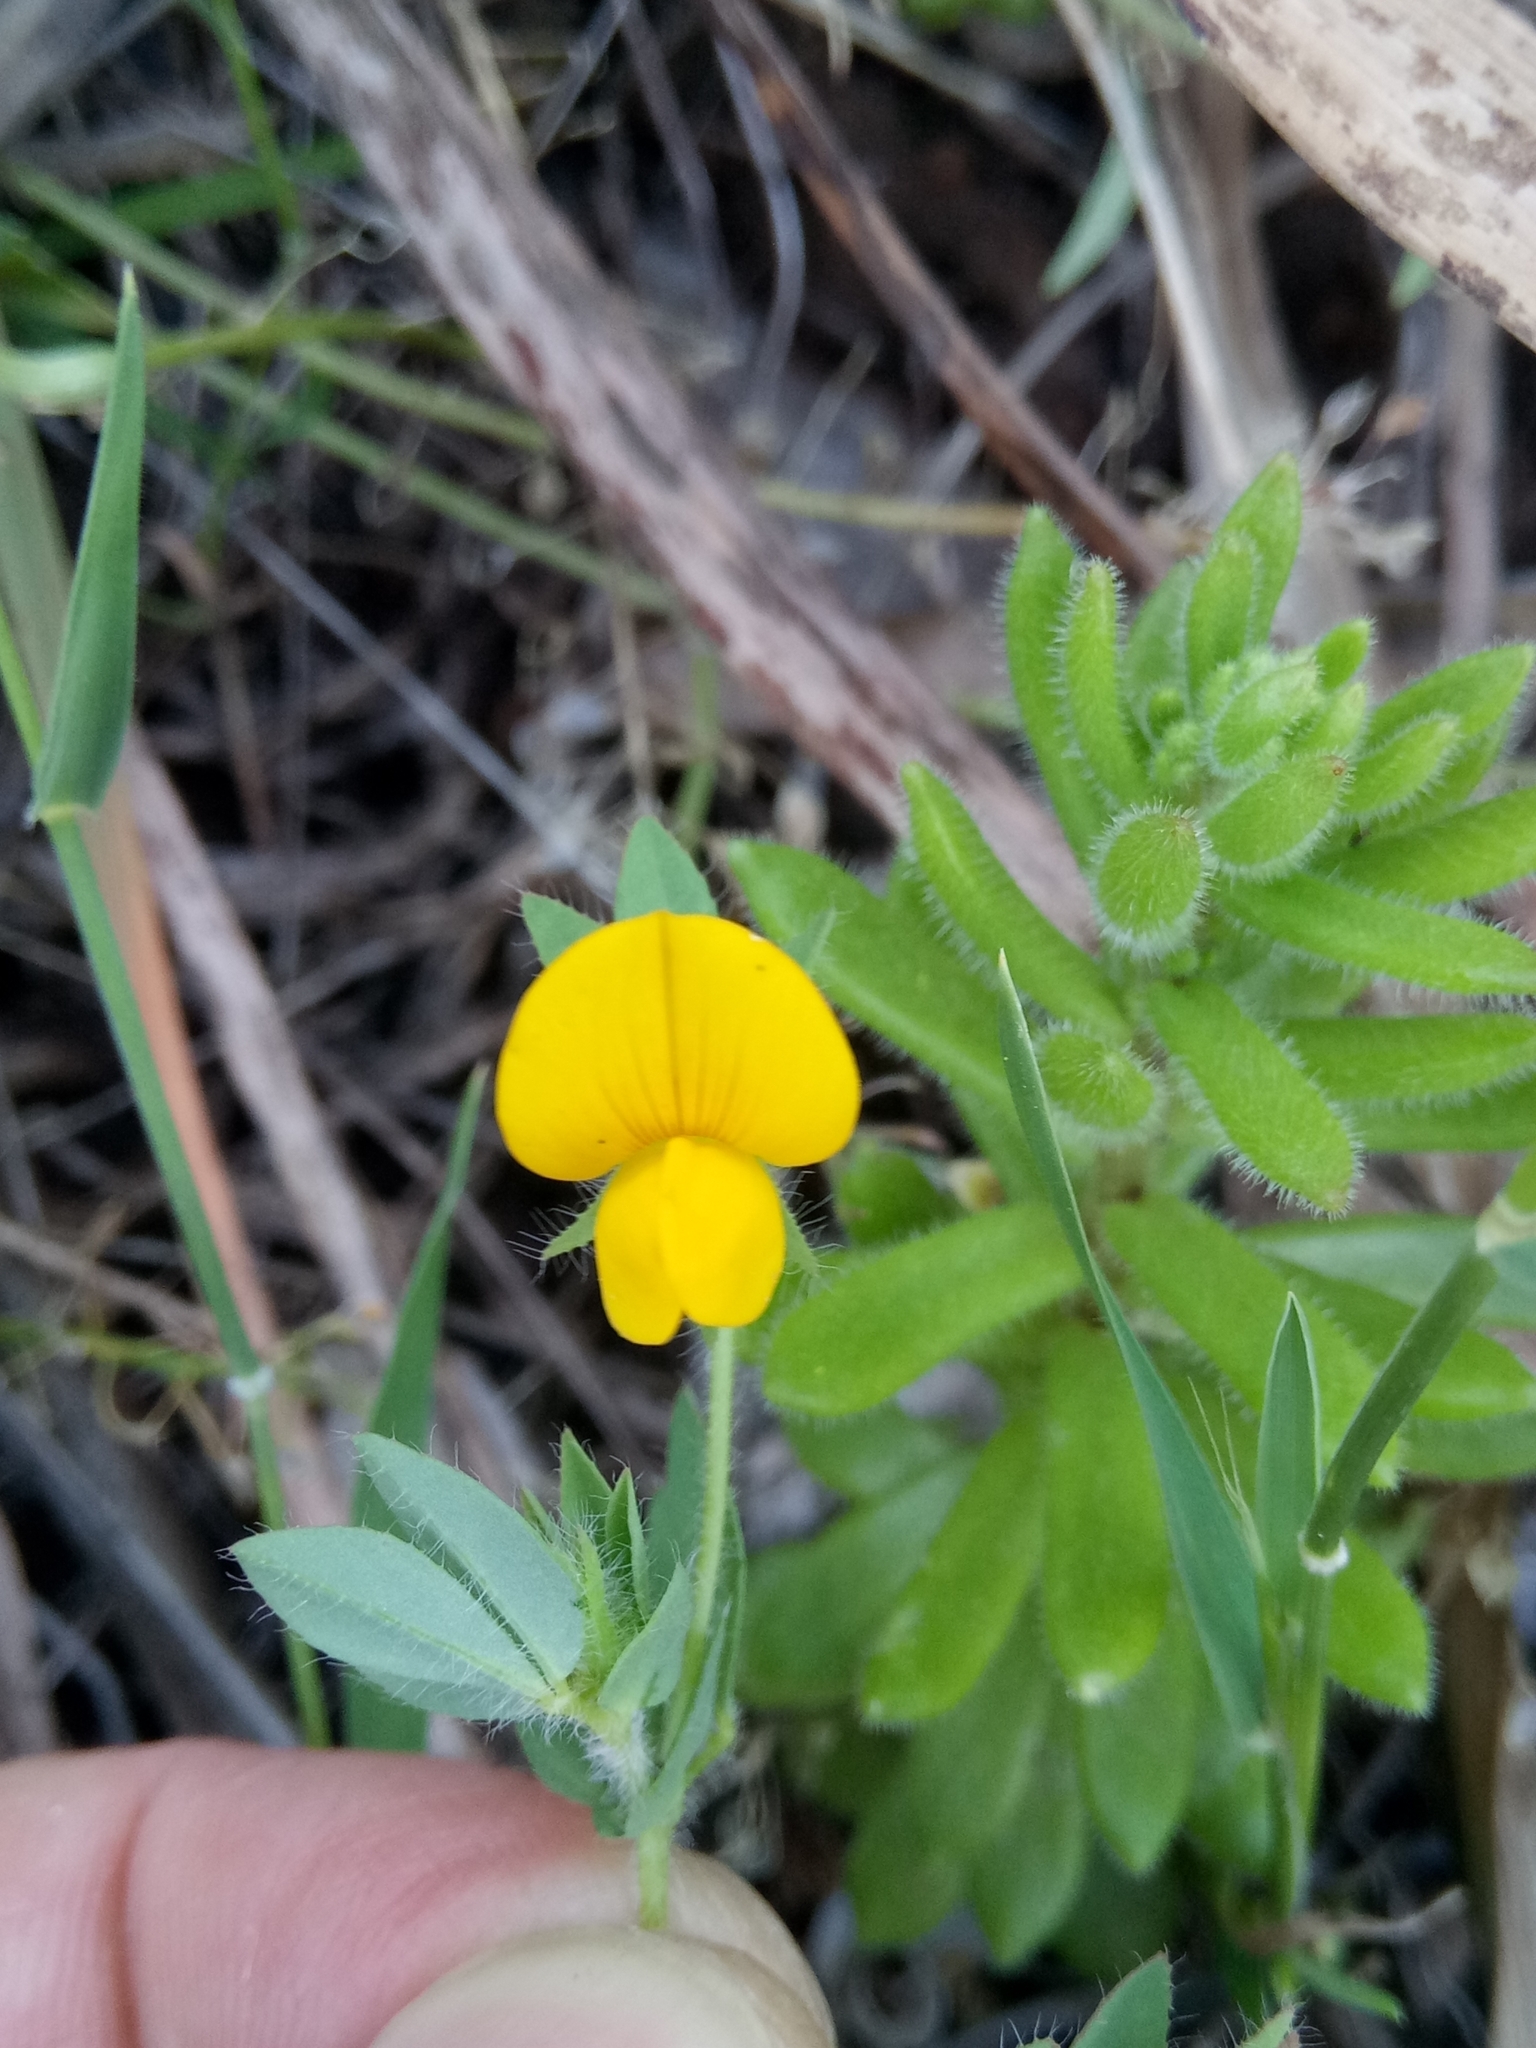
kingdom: Plantae
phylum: Tracheophyta
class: Magnoliopsida
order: Fabales
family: Fabaceae
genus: Lotus
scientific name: Lotus edulis
